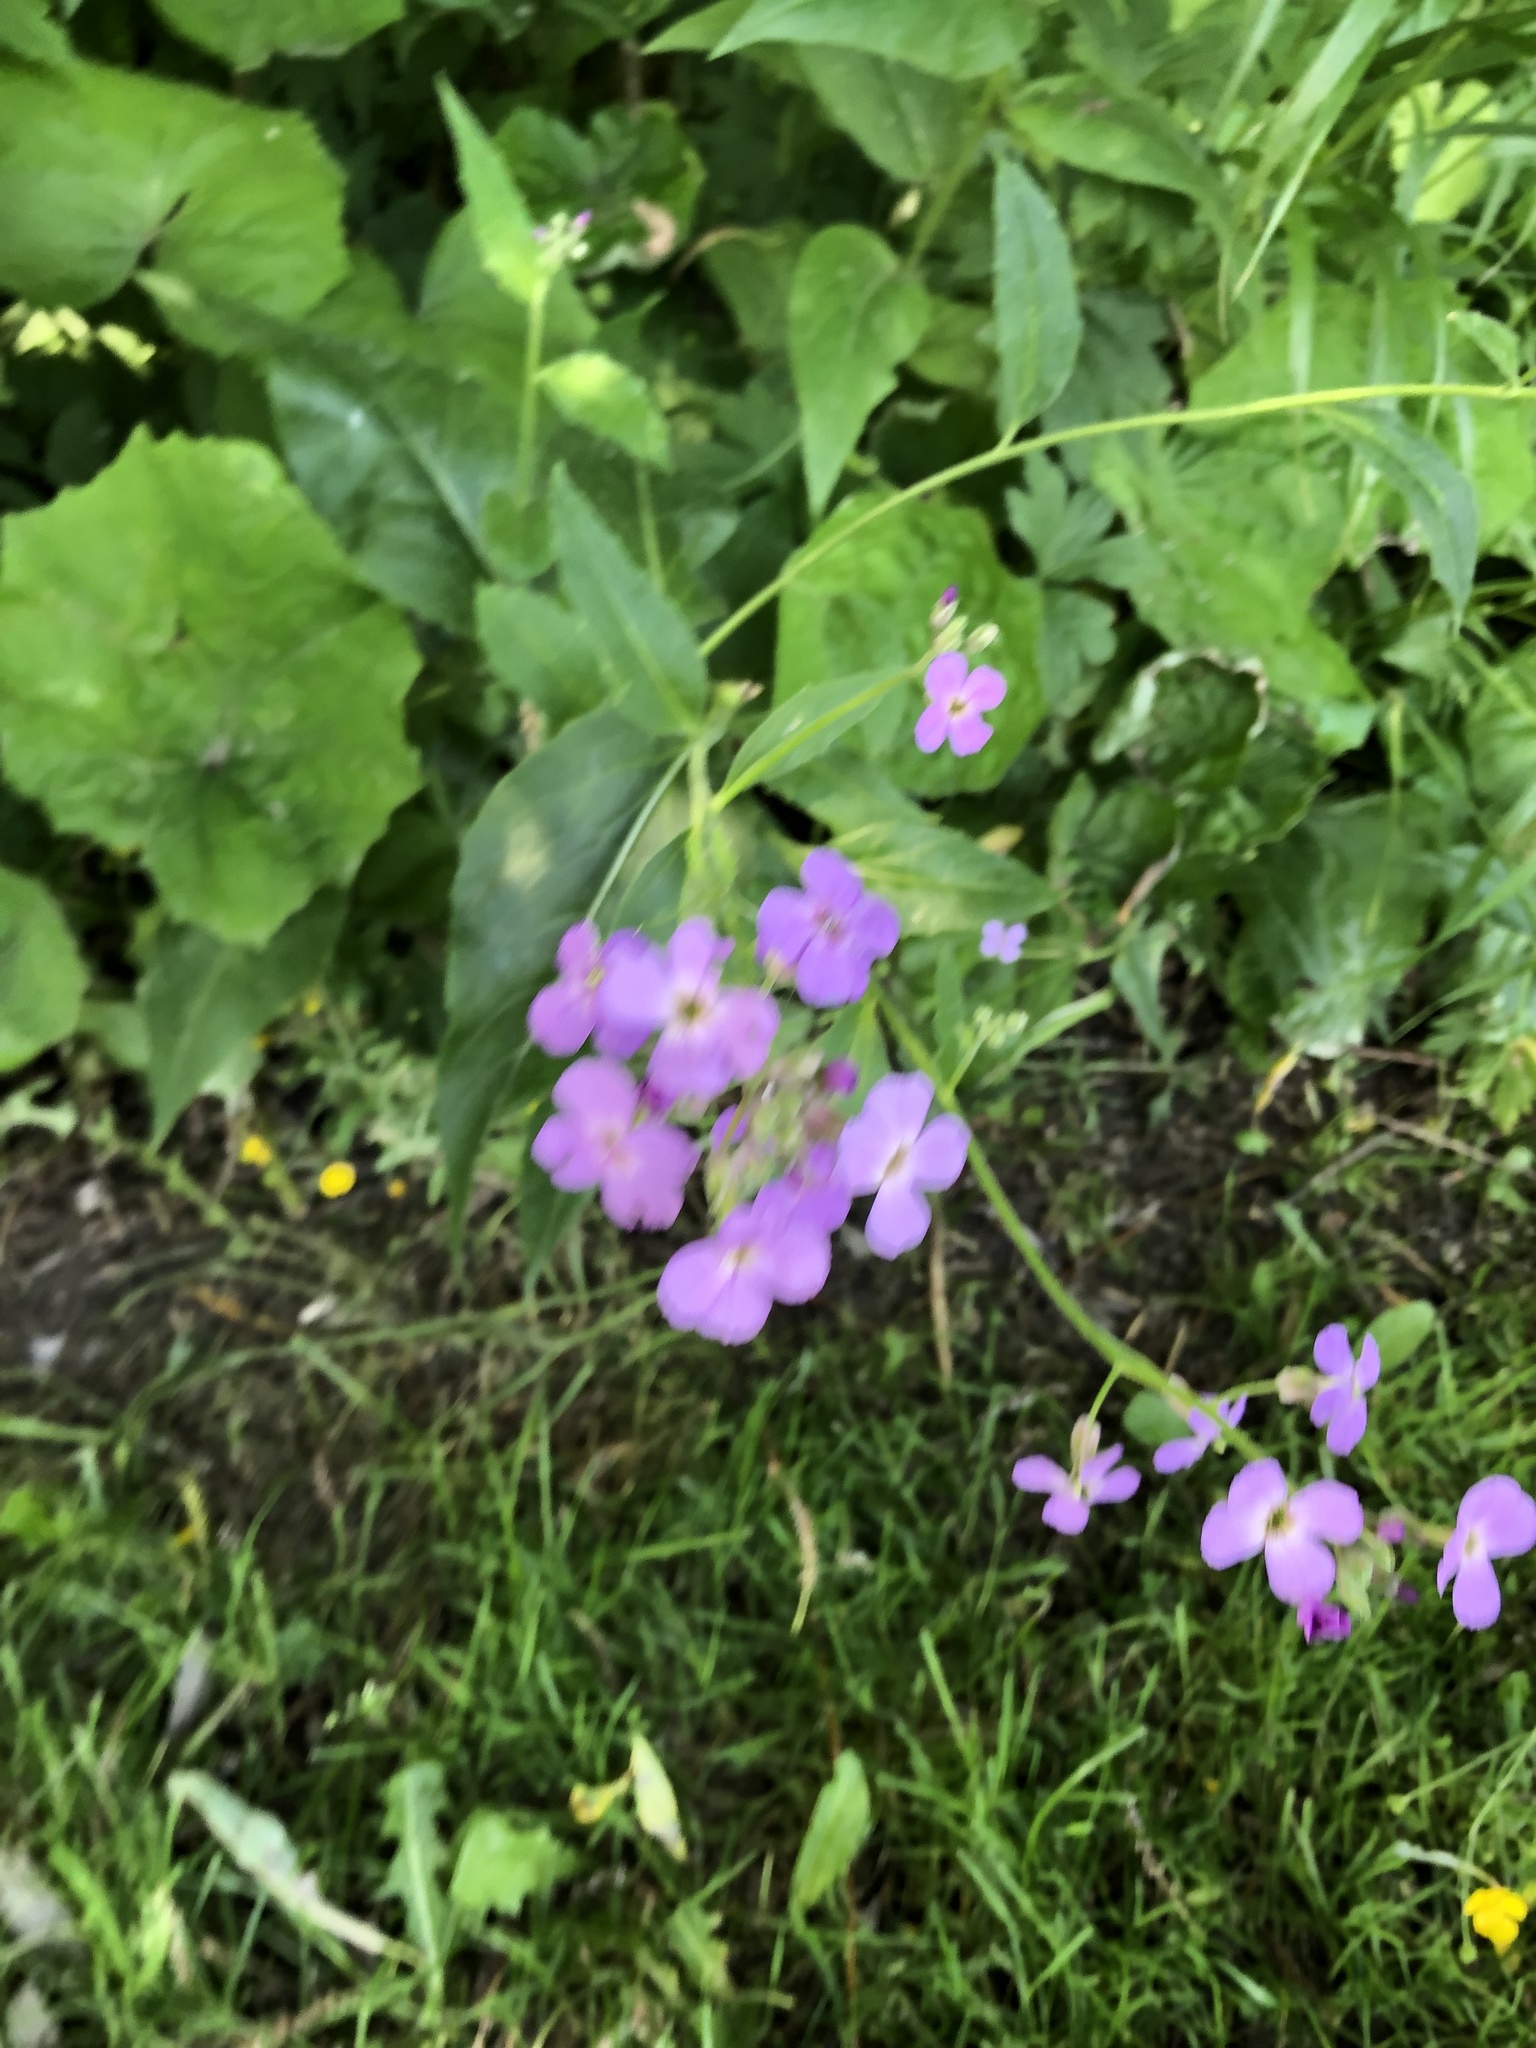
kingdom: Plantae
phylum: Tracheophyta
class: Magnoliopsida
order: Brassicales
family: Brassicaceae
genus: Hesperis
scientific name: Hesperis matronalis
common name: Dame's-violet
